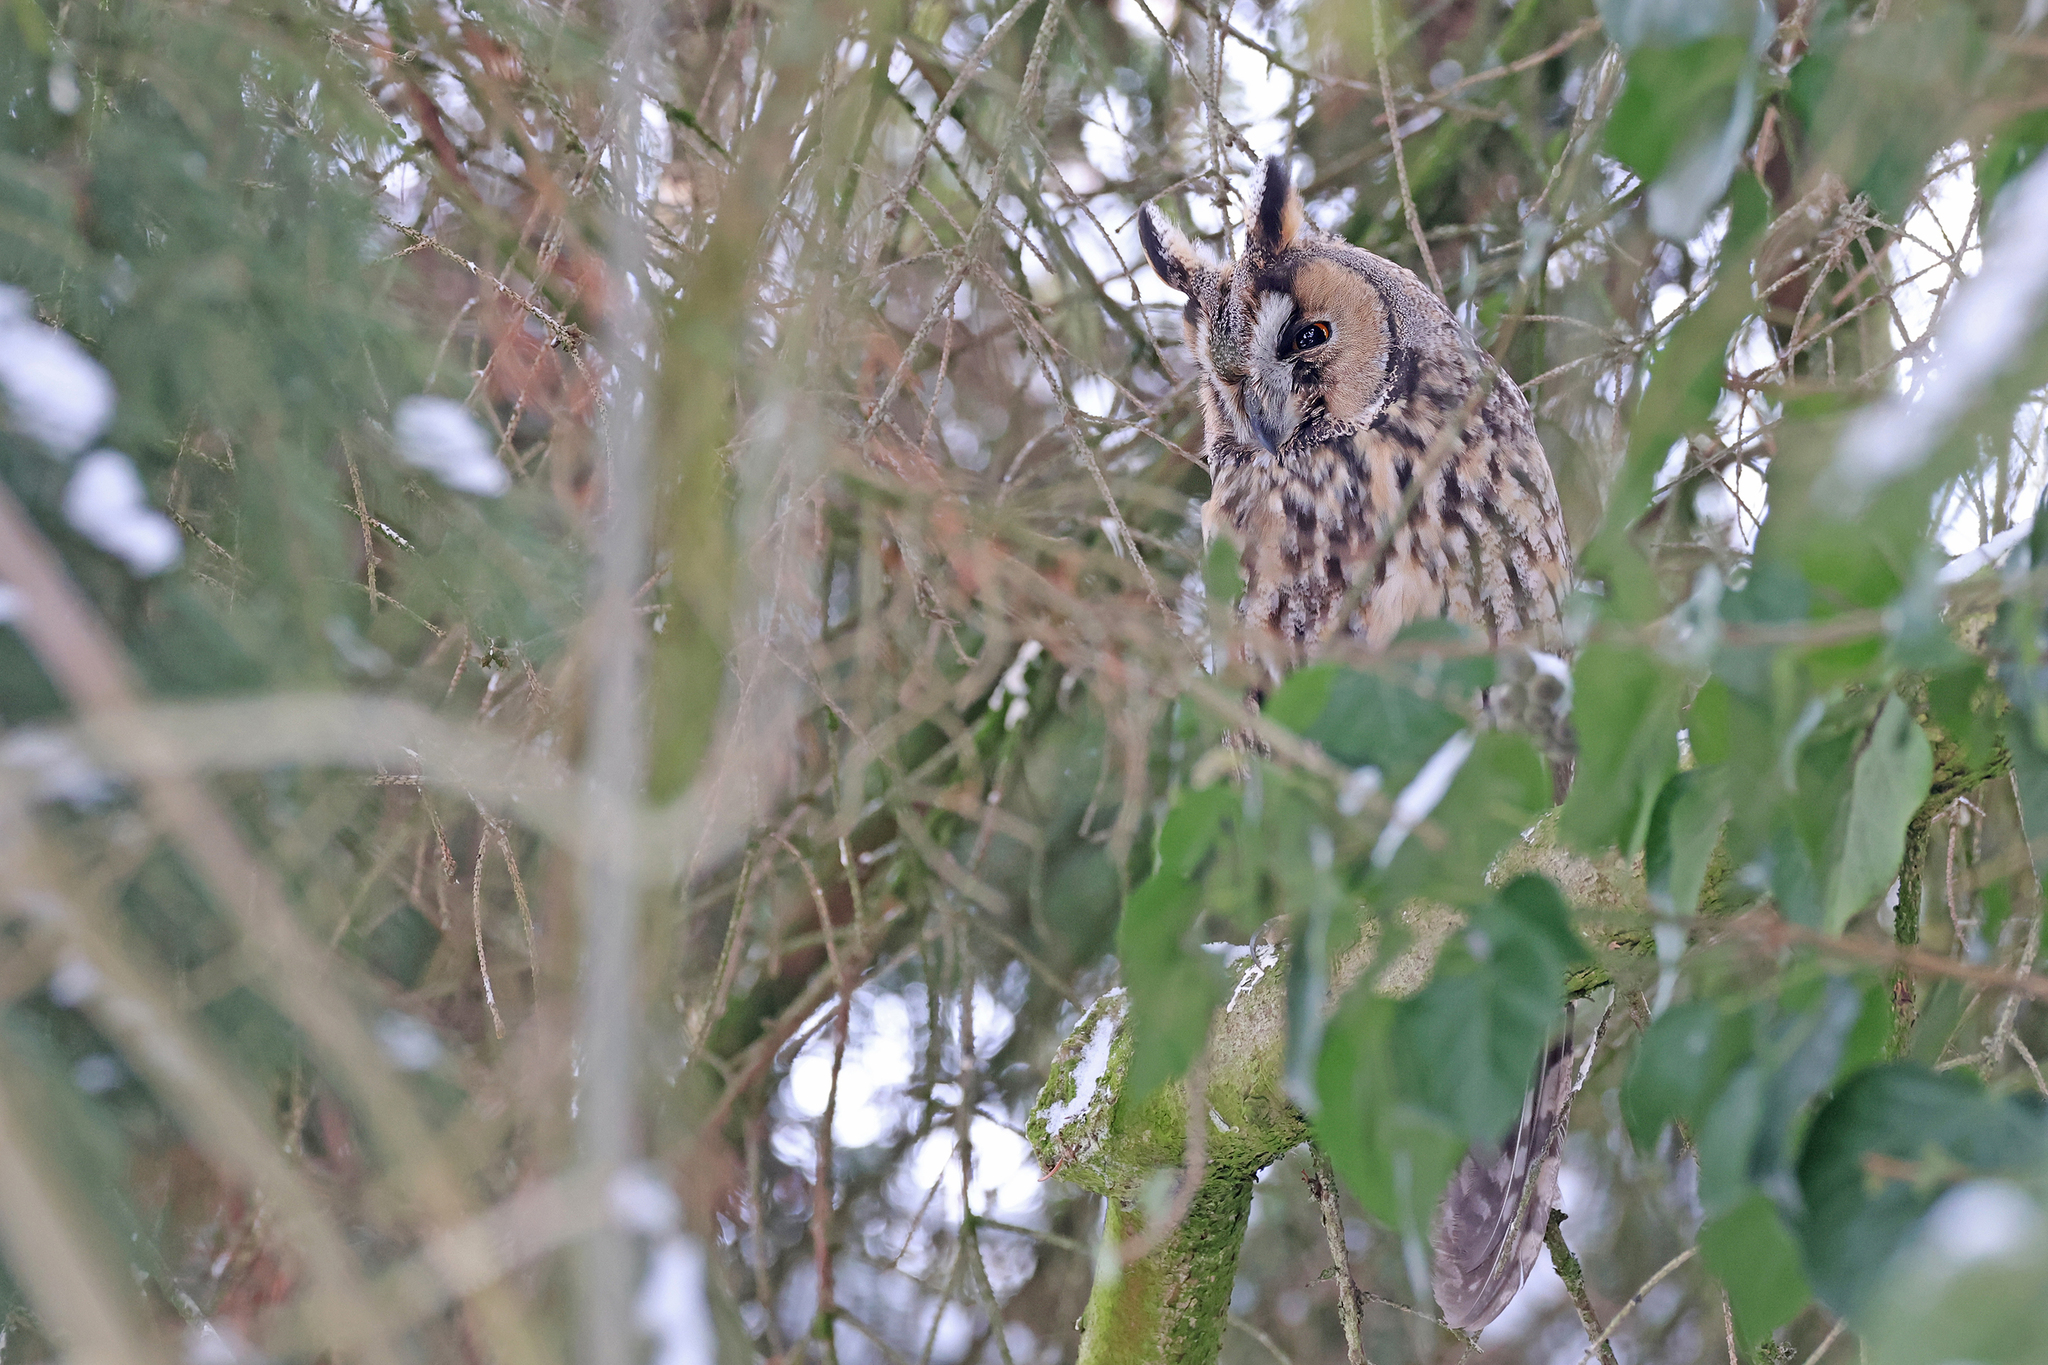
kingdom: Animalia
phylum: Chordata
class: Aves
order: Strigiformes
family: Strigidae
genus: Asio
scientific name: Asio otus
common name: Long-eared owl
